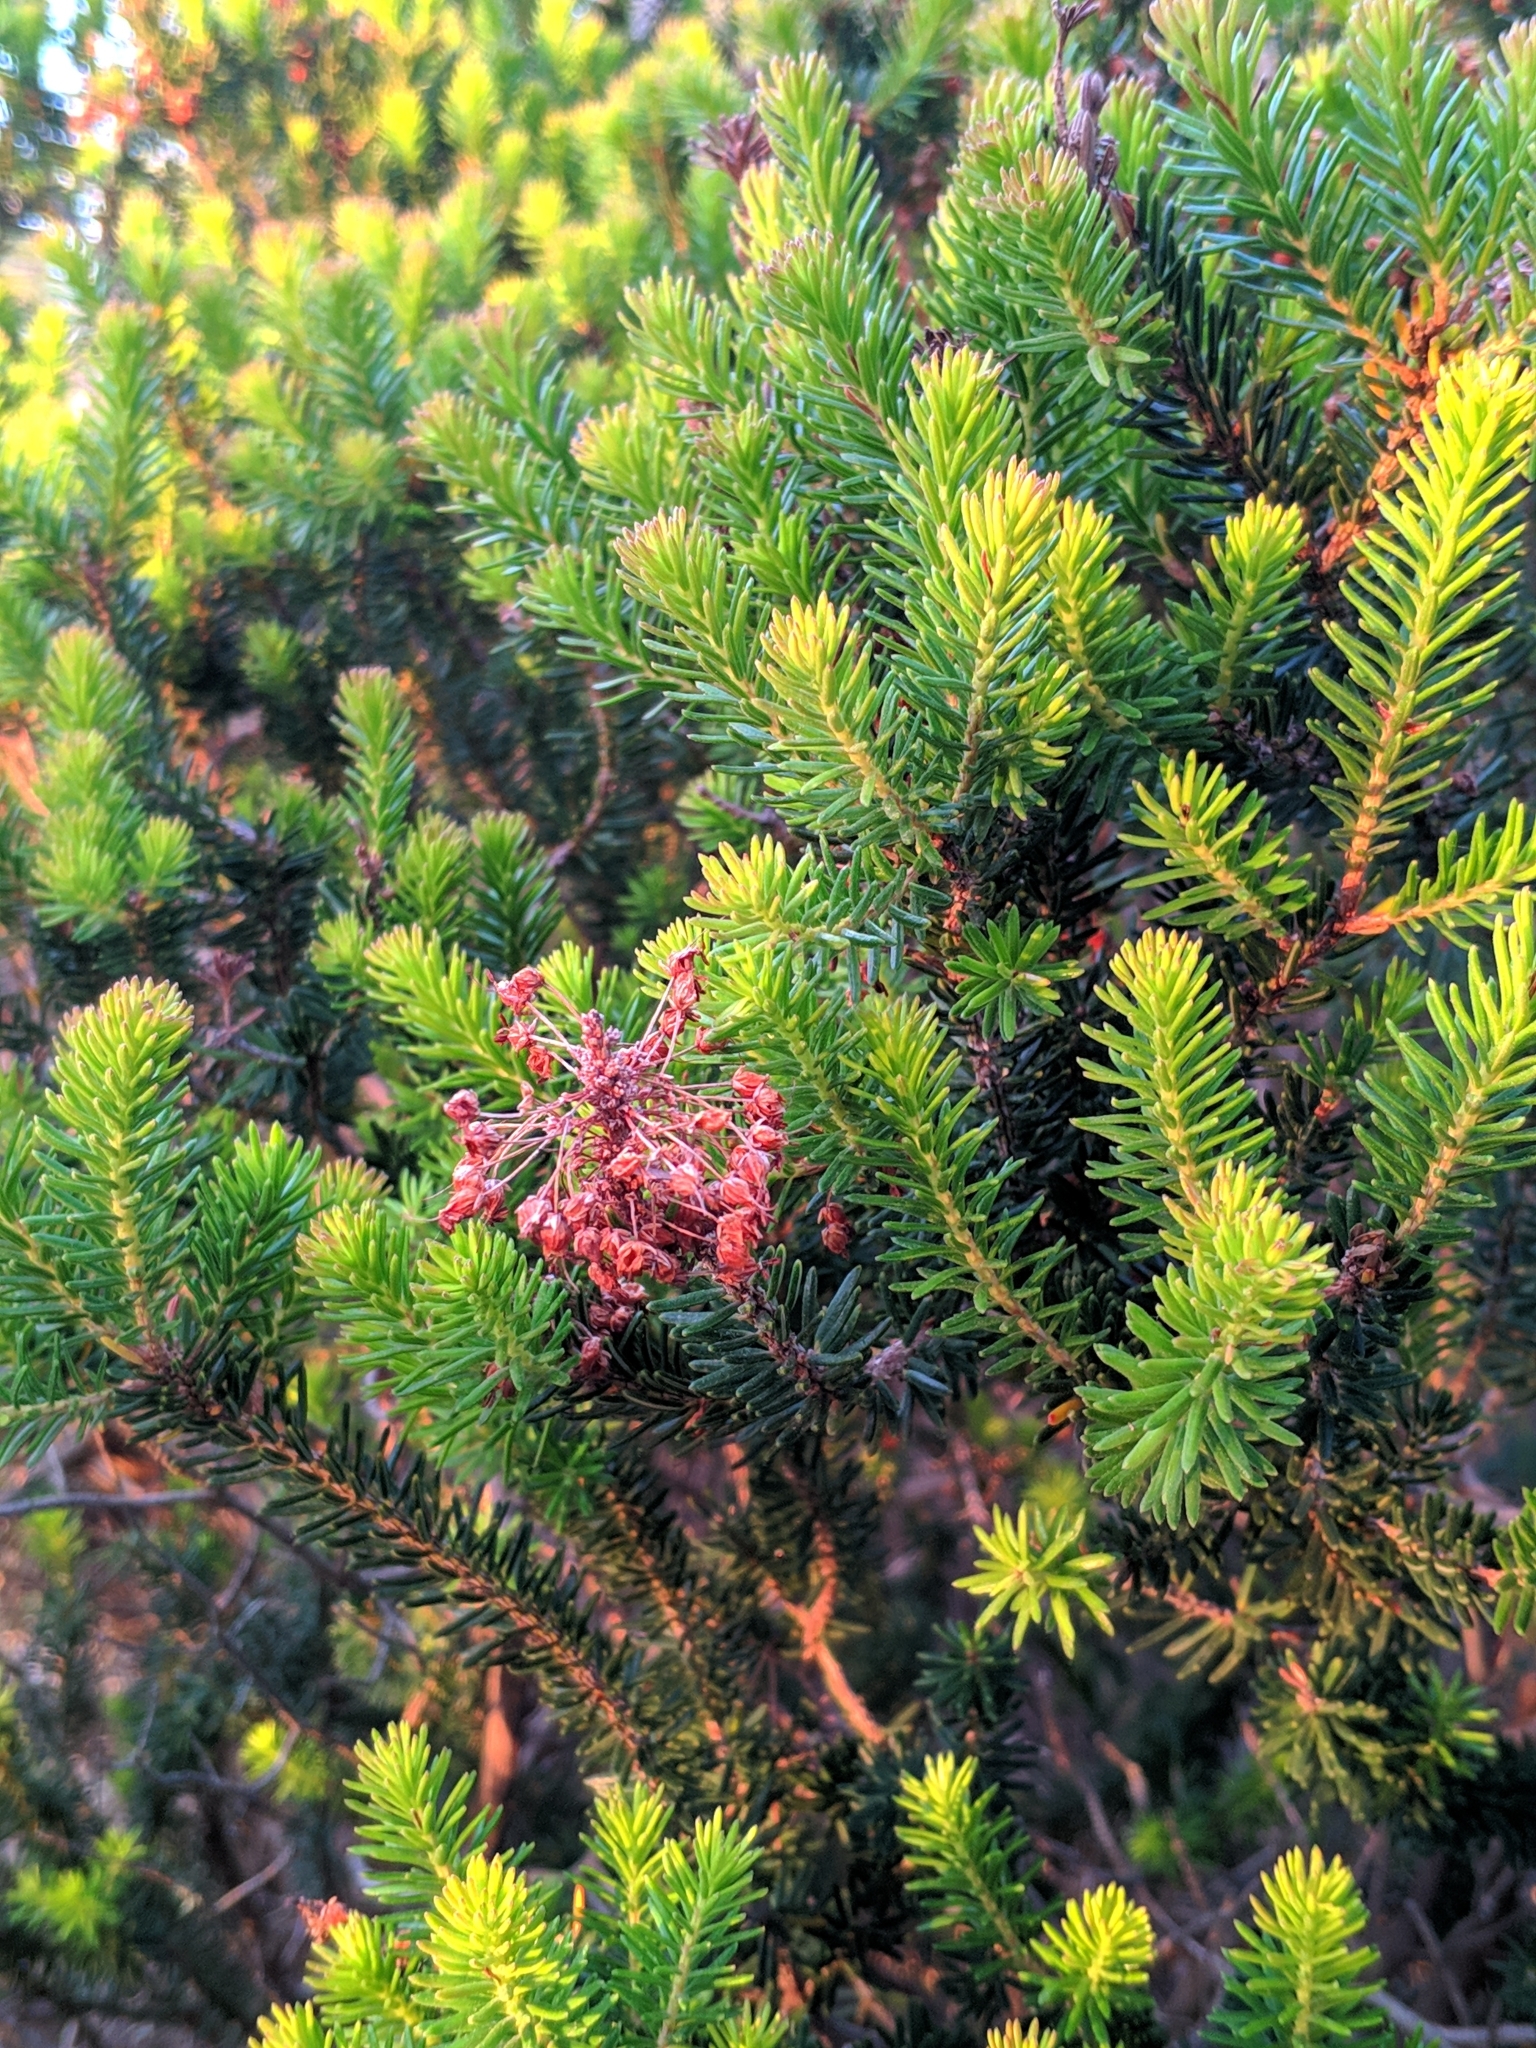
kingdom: Plantae
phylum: Tracheophyta
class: Magnoliopsida
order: Ericales
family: Ericaceae
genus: Erica
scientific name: Erica multiflora
